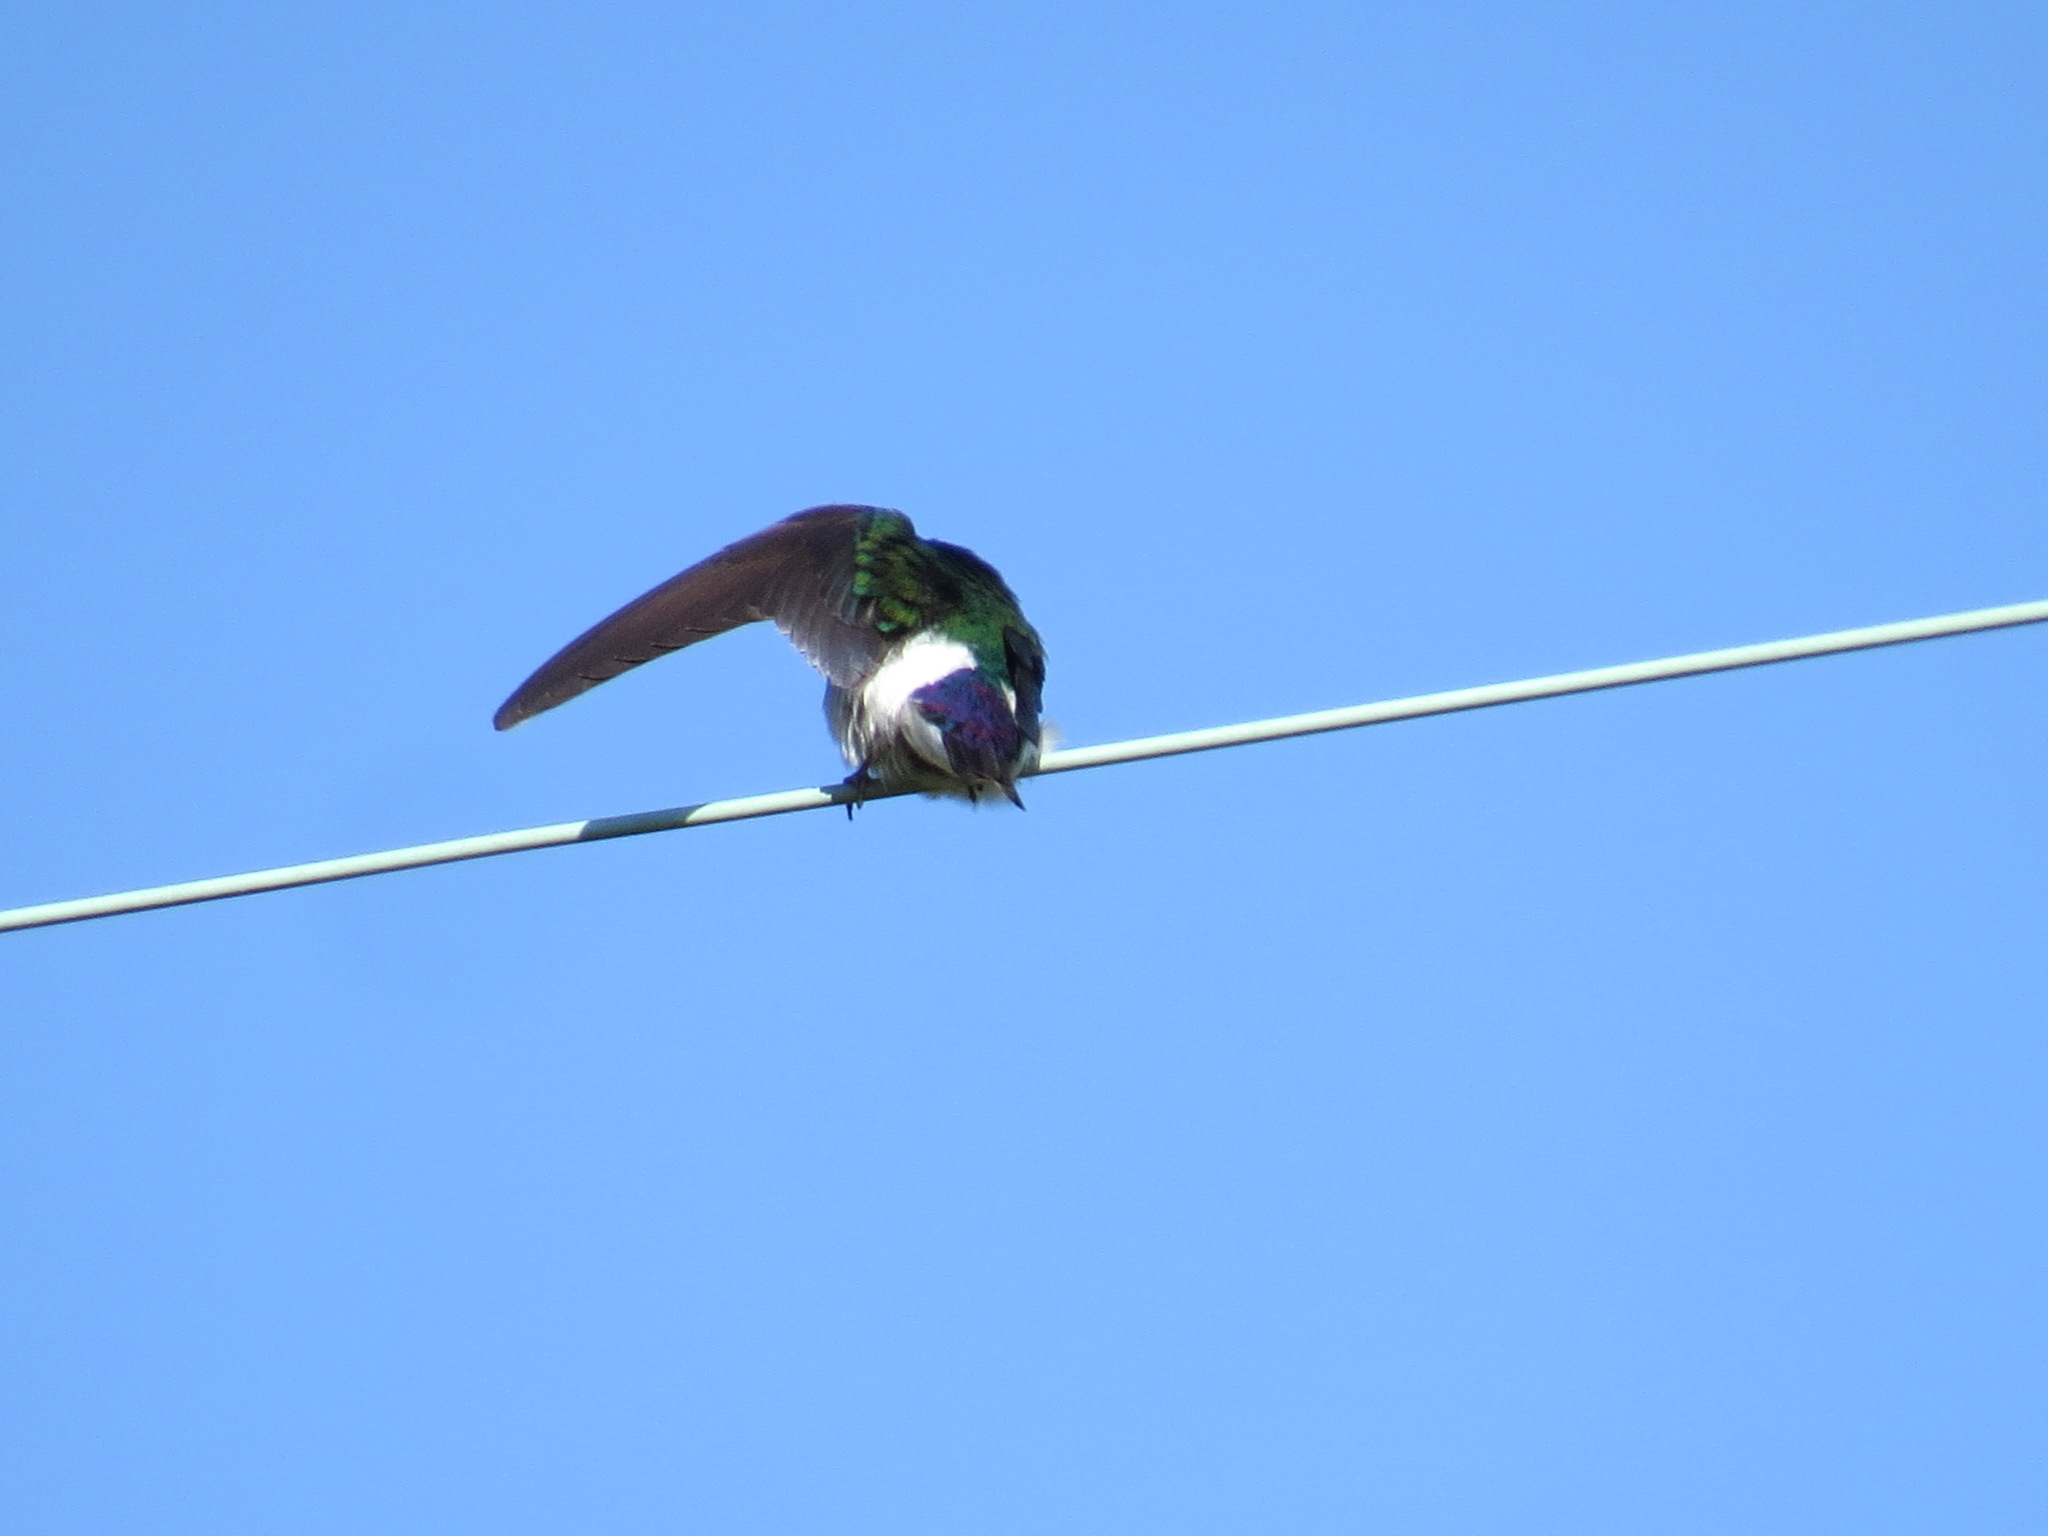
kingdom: Animalia
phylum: Chordata
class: Aves
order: Passeriformes
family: Hirundinidae
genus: Tachycineta
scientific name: Tachycineta thalassina
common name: Violet-green swallow
